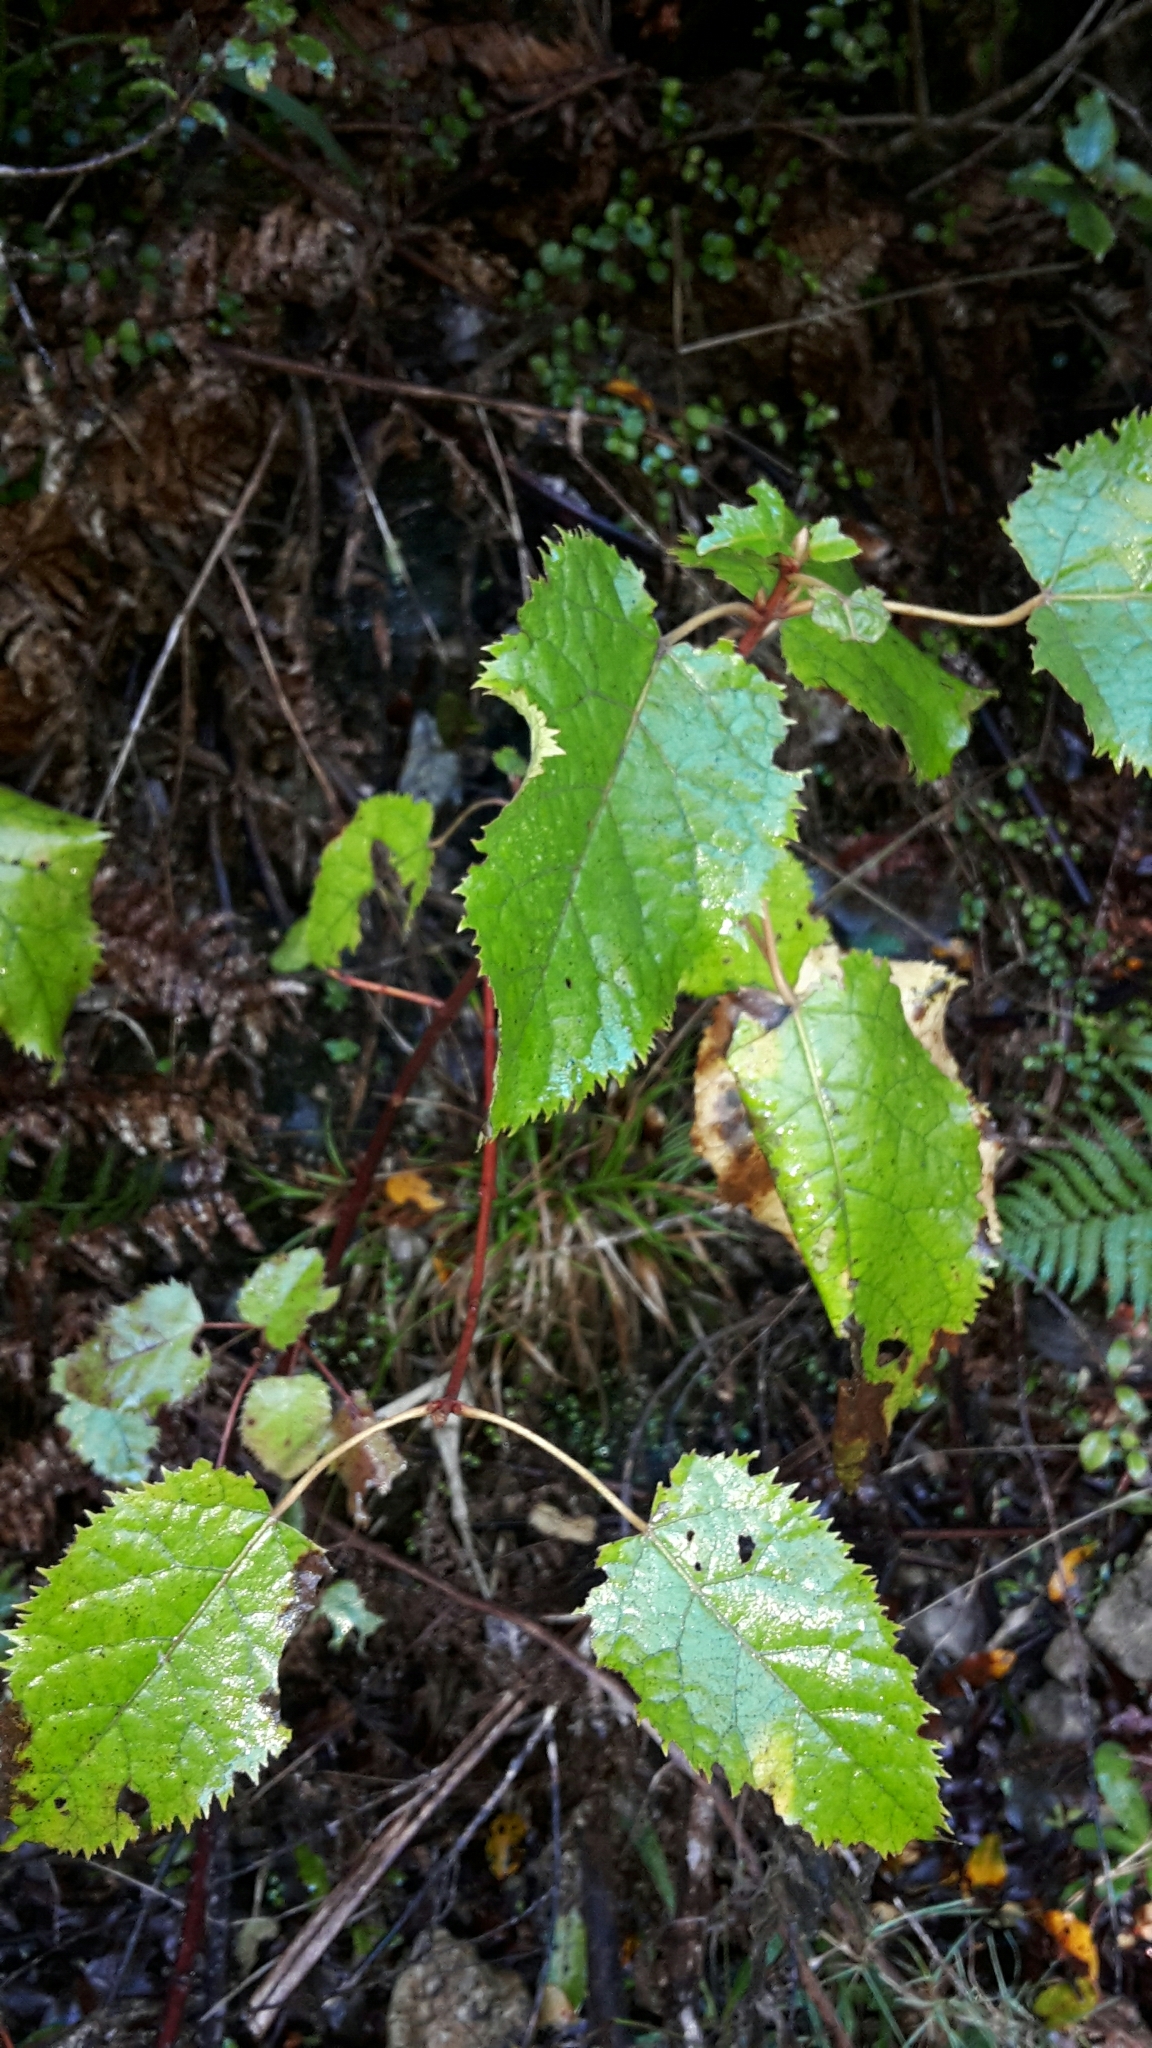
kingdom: Plantae
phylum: Tracheophyta
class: Magnoliopsida
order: Oxalidales
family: Elaeocarpaceae
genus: Aristotelia
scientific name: Aristotelia serrata
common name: New zealand wineberry
